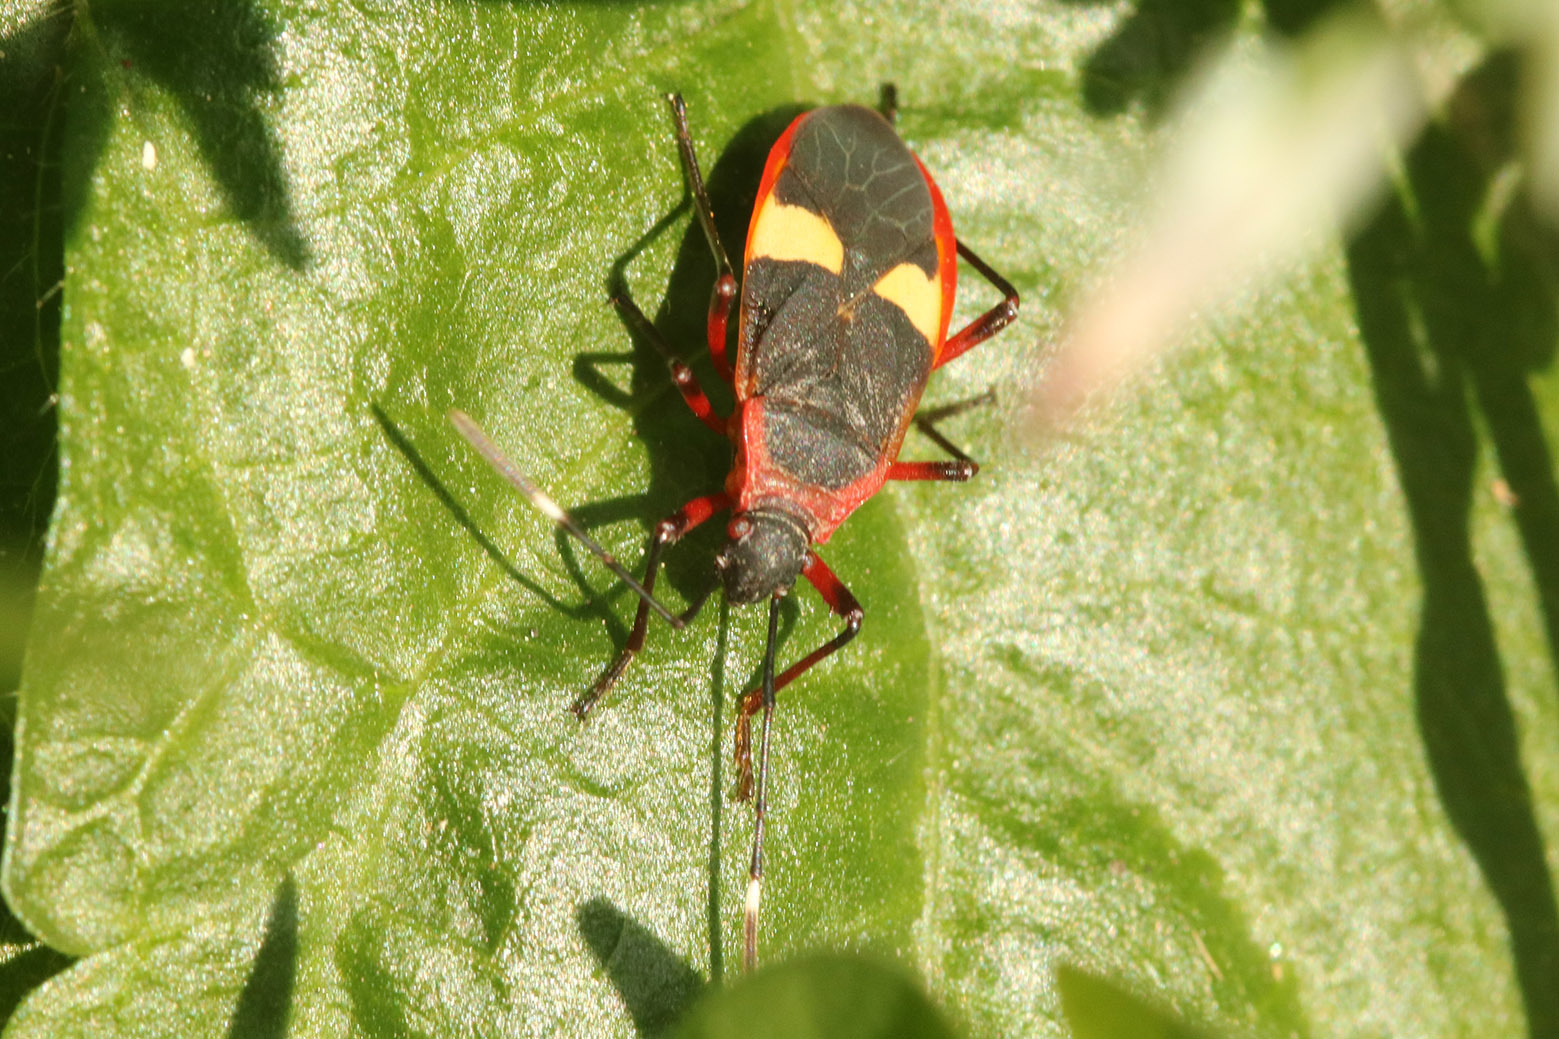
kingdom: Animalia
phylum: Arthropoda
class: Insecta
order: Hemiptera
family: Pyrrhocoridae
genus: Dysdercus
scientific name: Dysdercus albofasciatus
